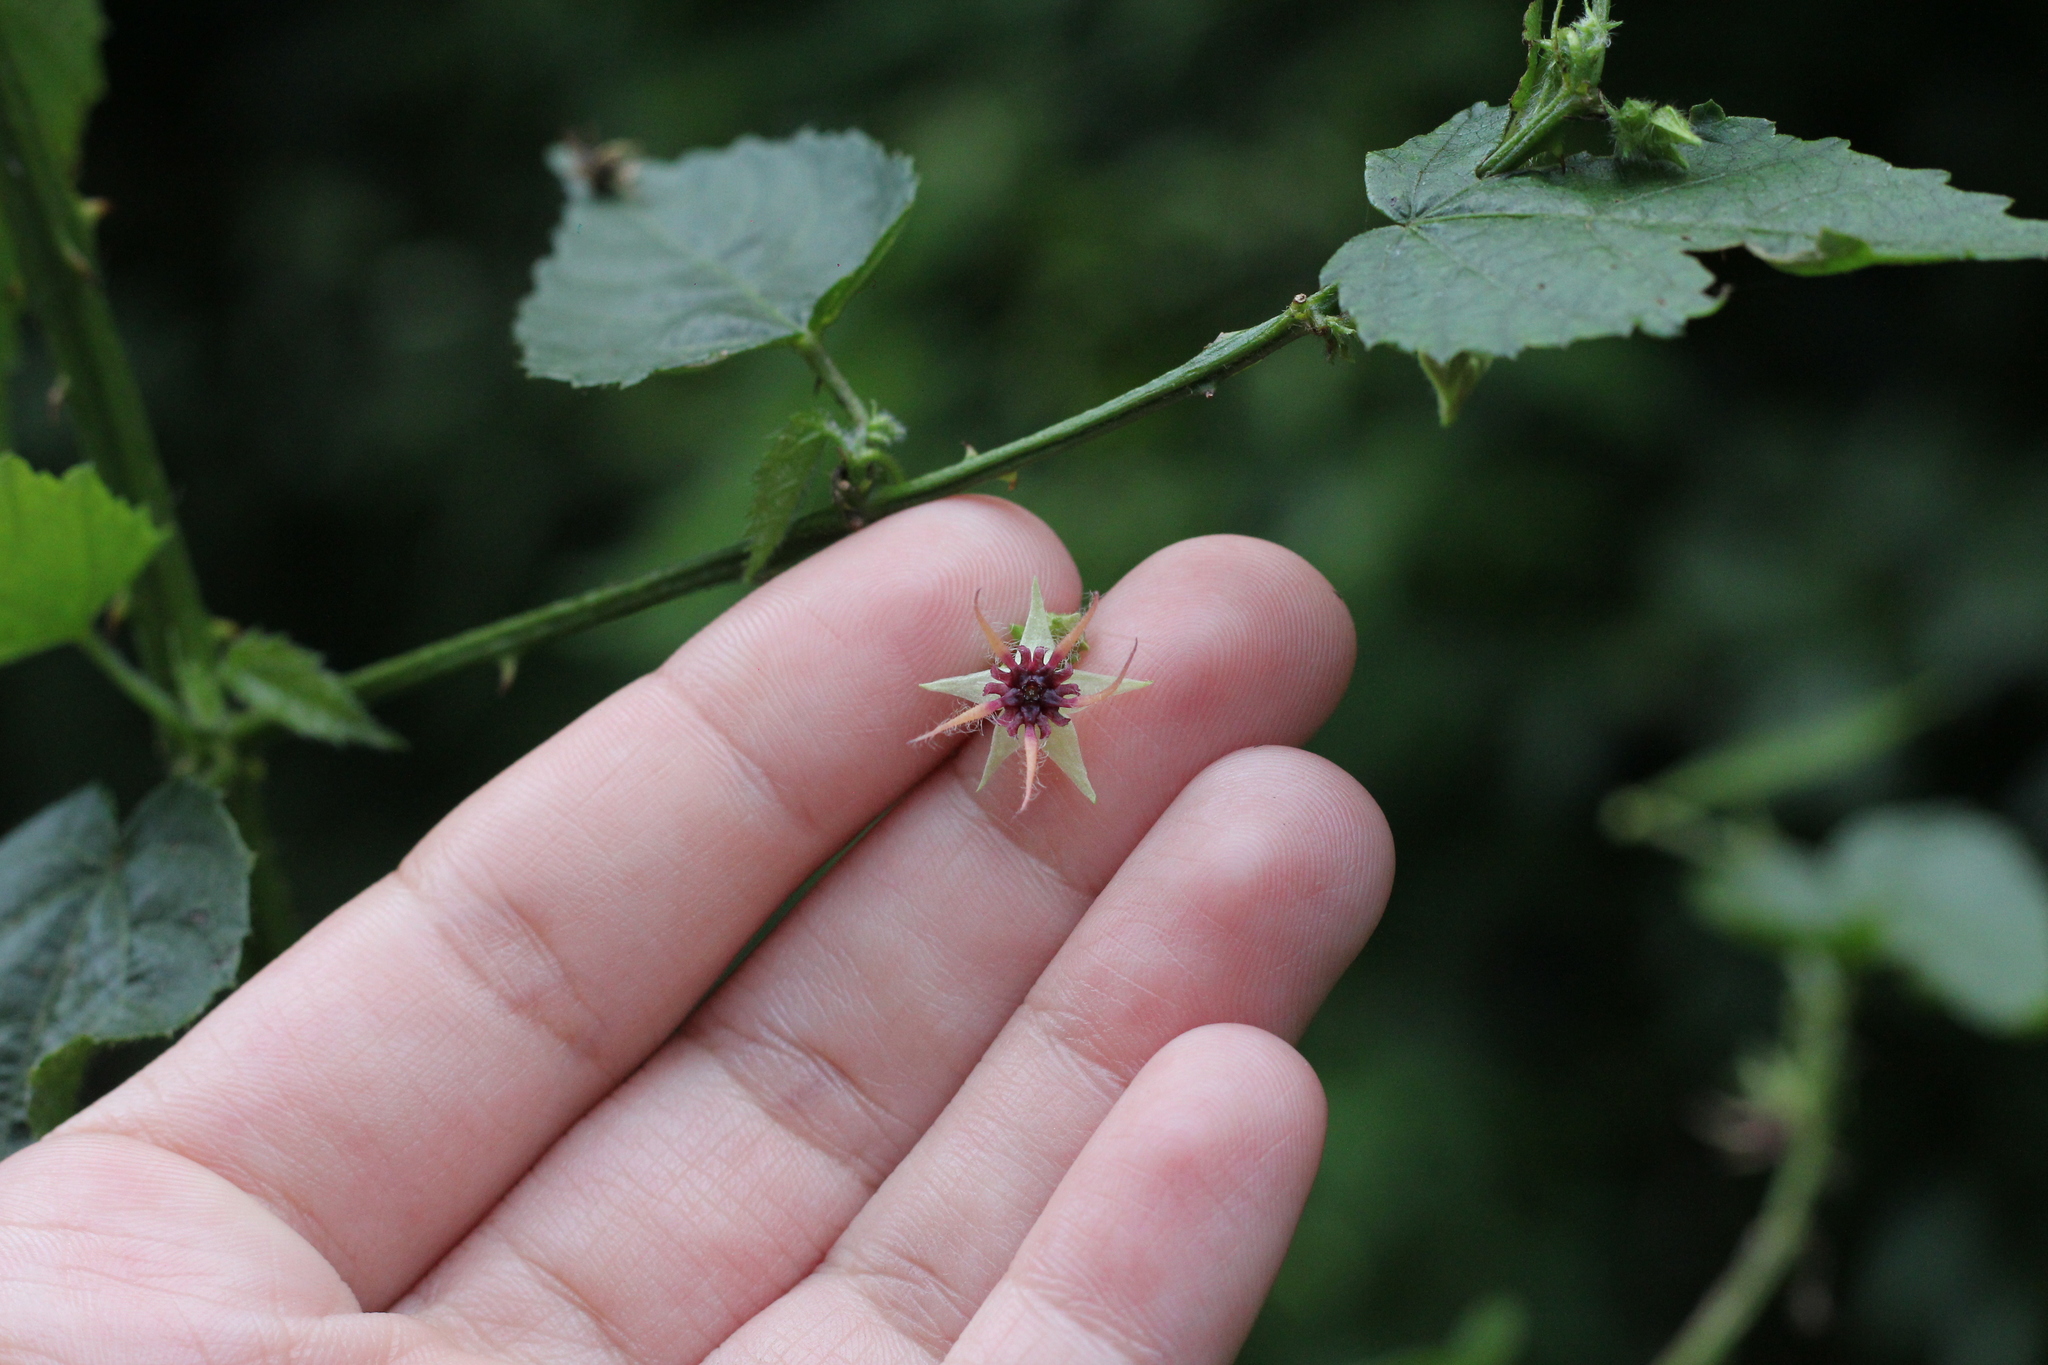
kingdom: Plantae
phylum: Tracheophyta
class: Magnoliopsida
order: Malvales
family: Malvaceae
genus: Byttneria
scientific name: Byttneria urticifolia
